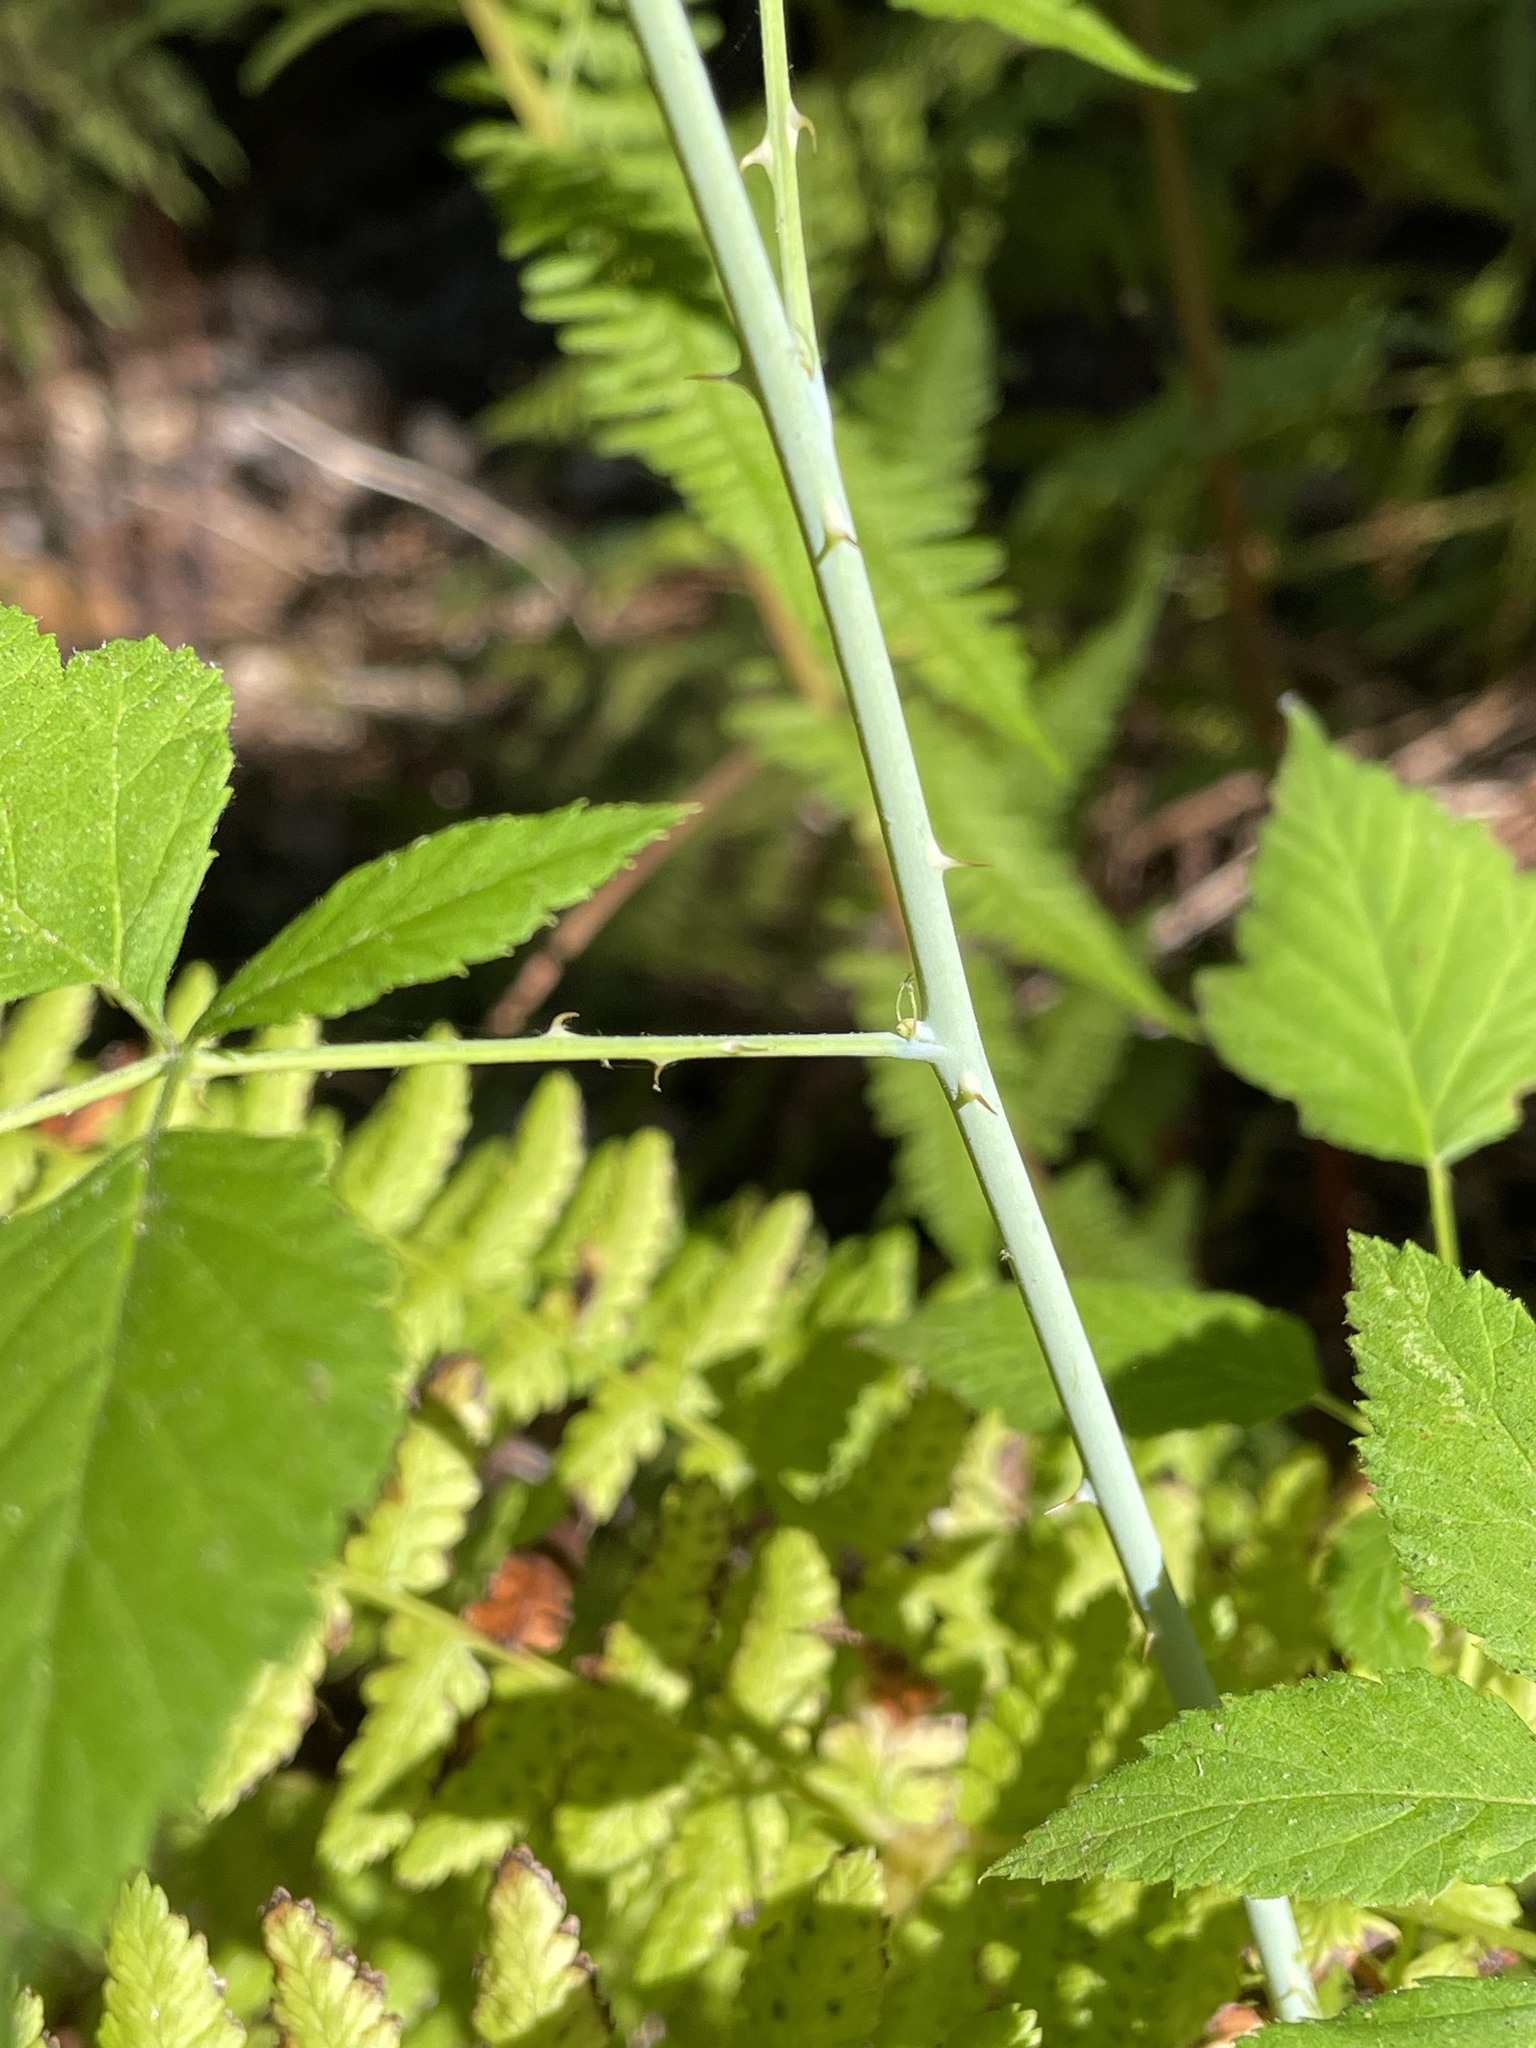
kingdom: Plantae
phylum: Tracheophyta
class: Magnoliopsida
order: Rosales
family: Rosaceae
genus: Rubus
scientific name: Rubus leucodermis
